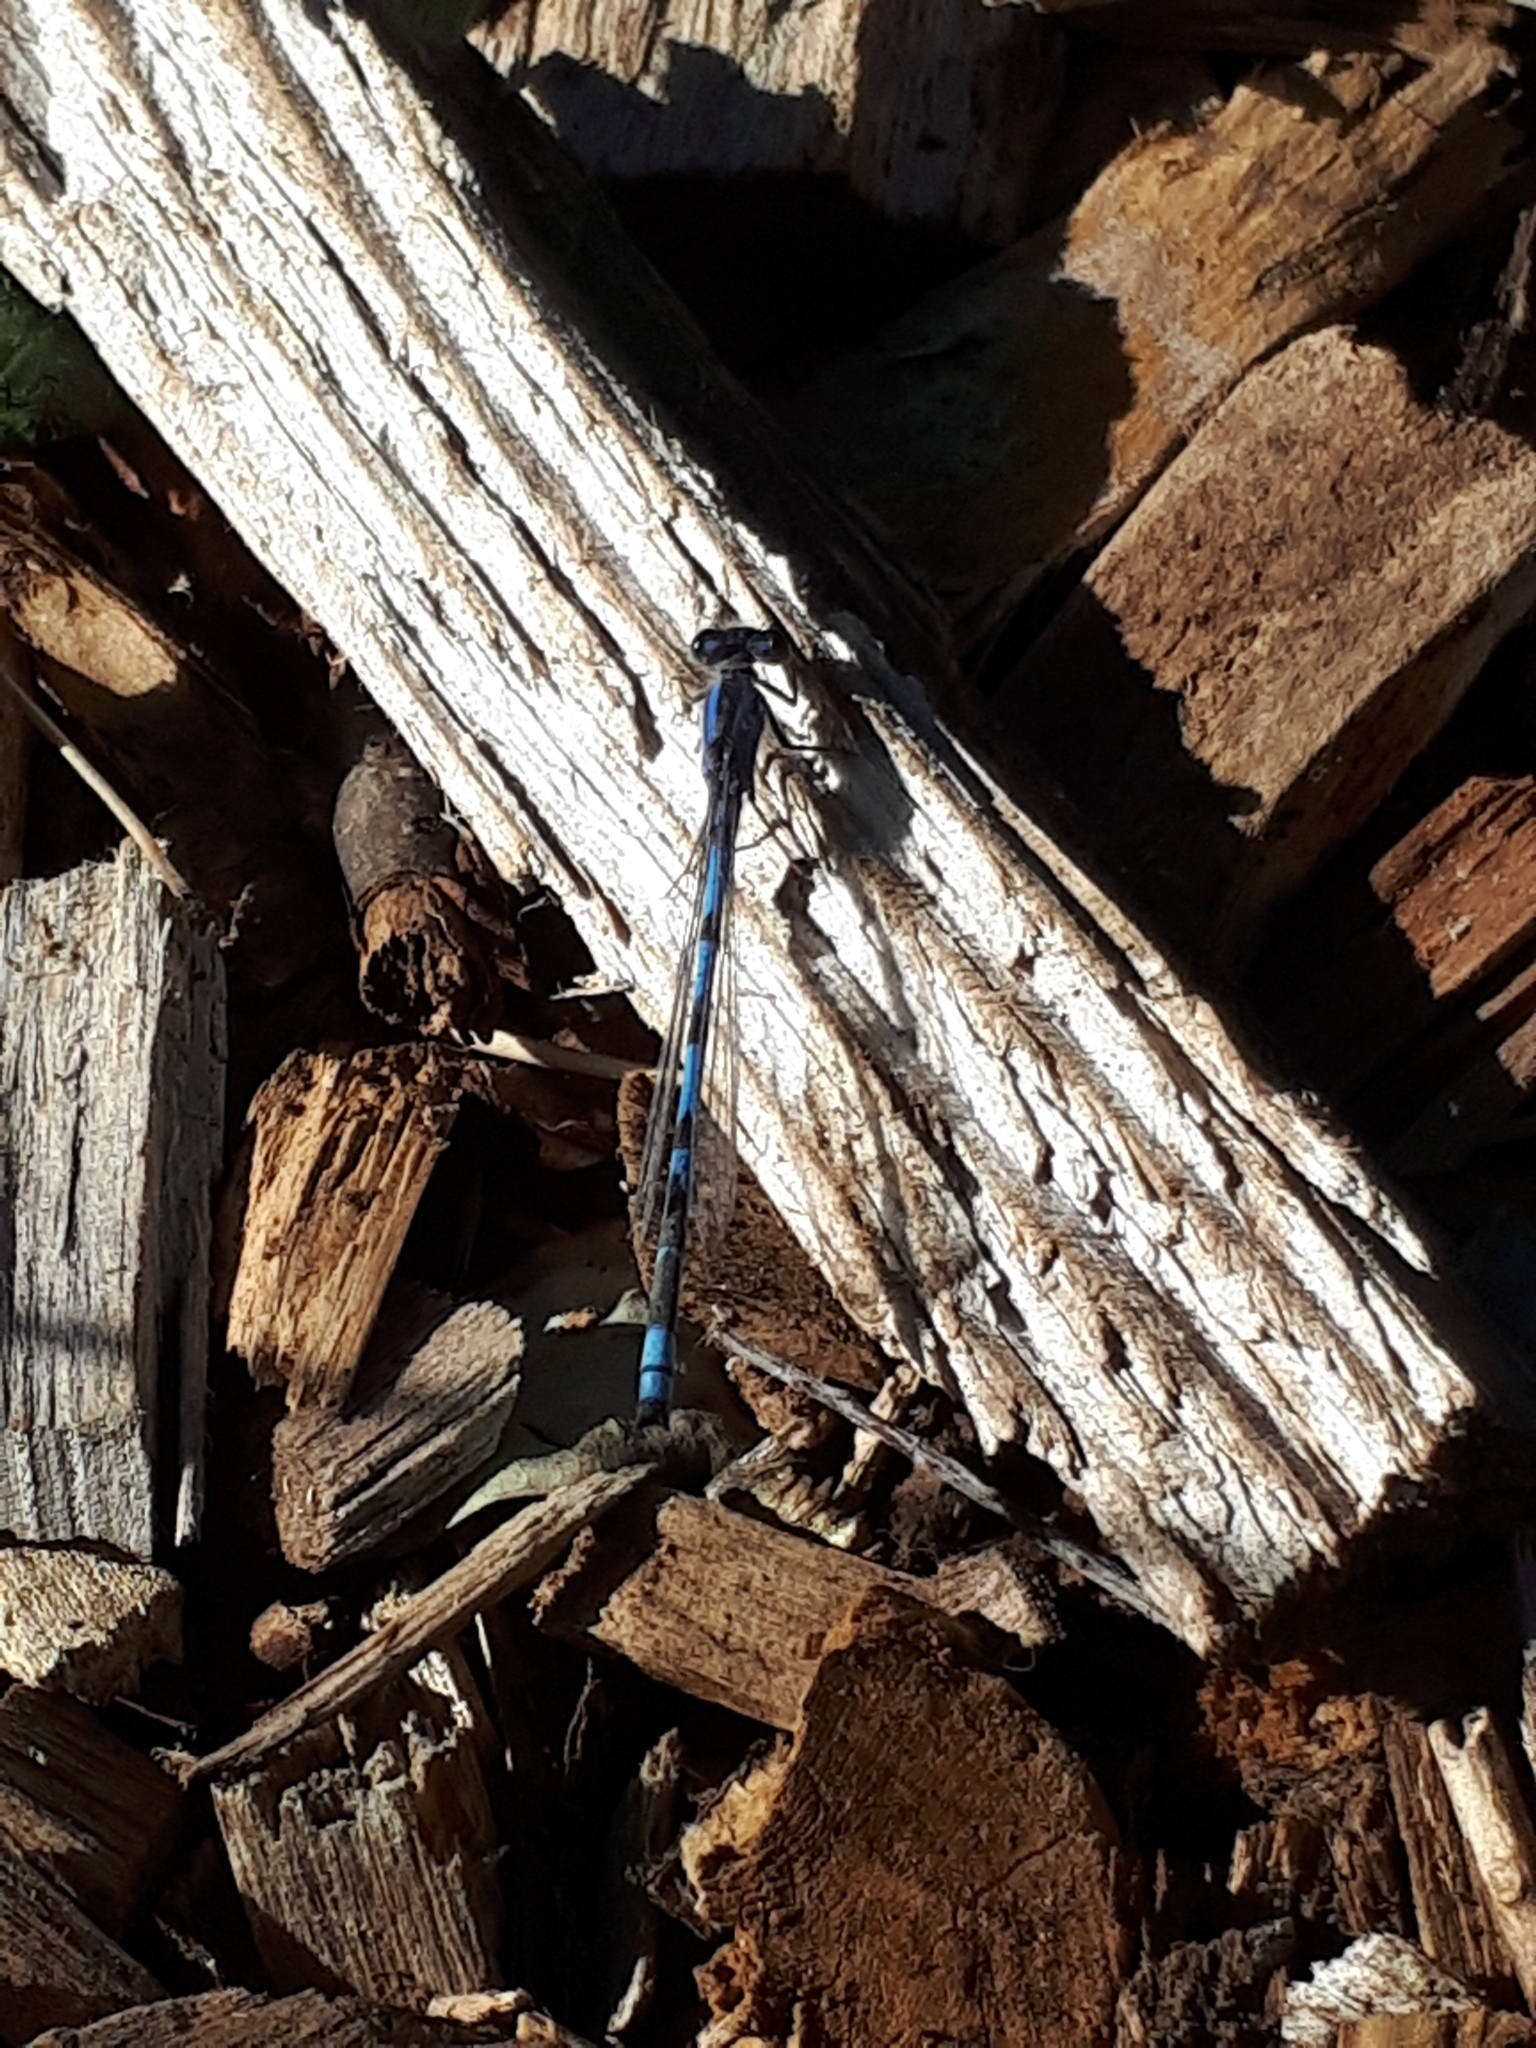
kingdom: Animalia
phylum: Arthropoda
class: Insecta
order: Odonata
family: Coenagrionidae
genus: Enallagma
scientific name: Enallagma civile
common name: Damselfly
